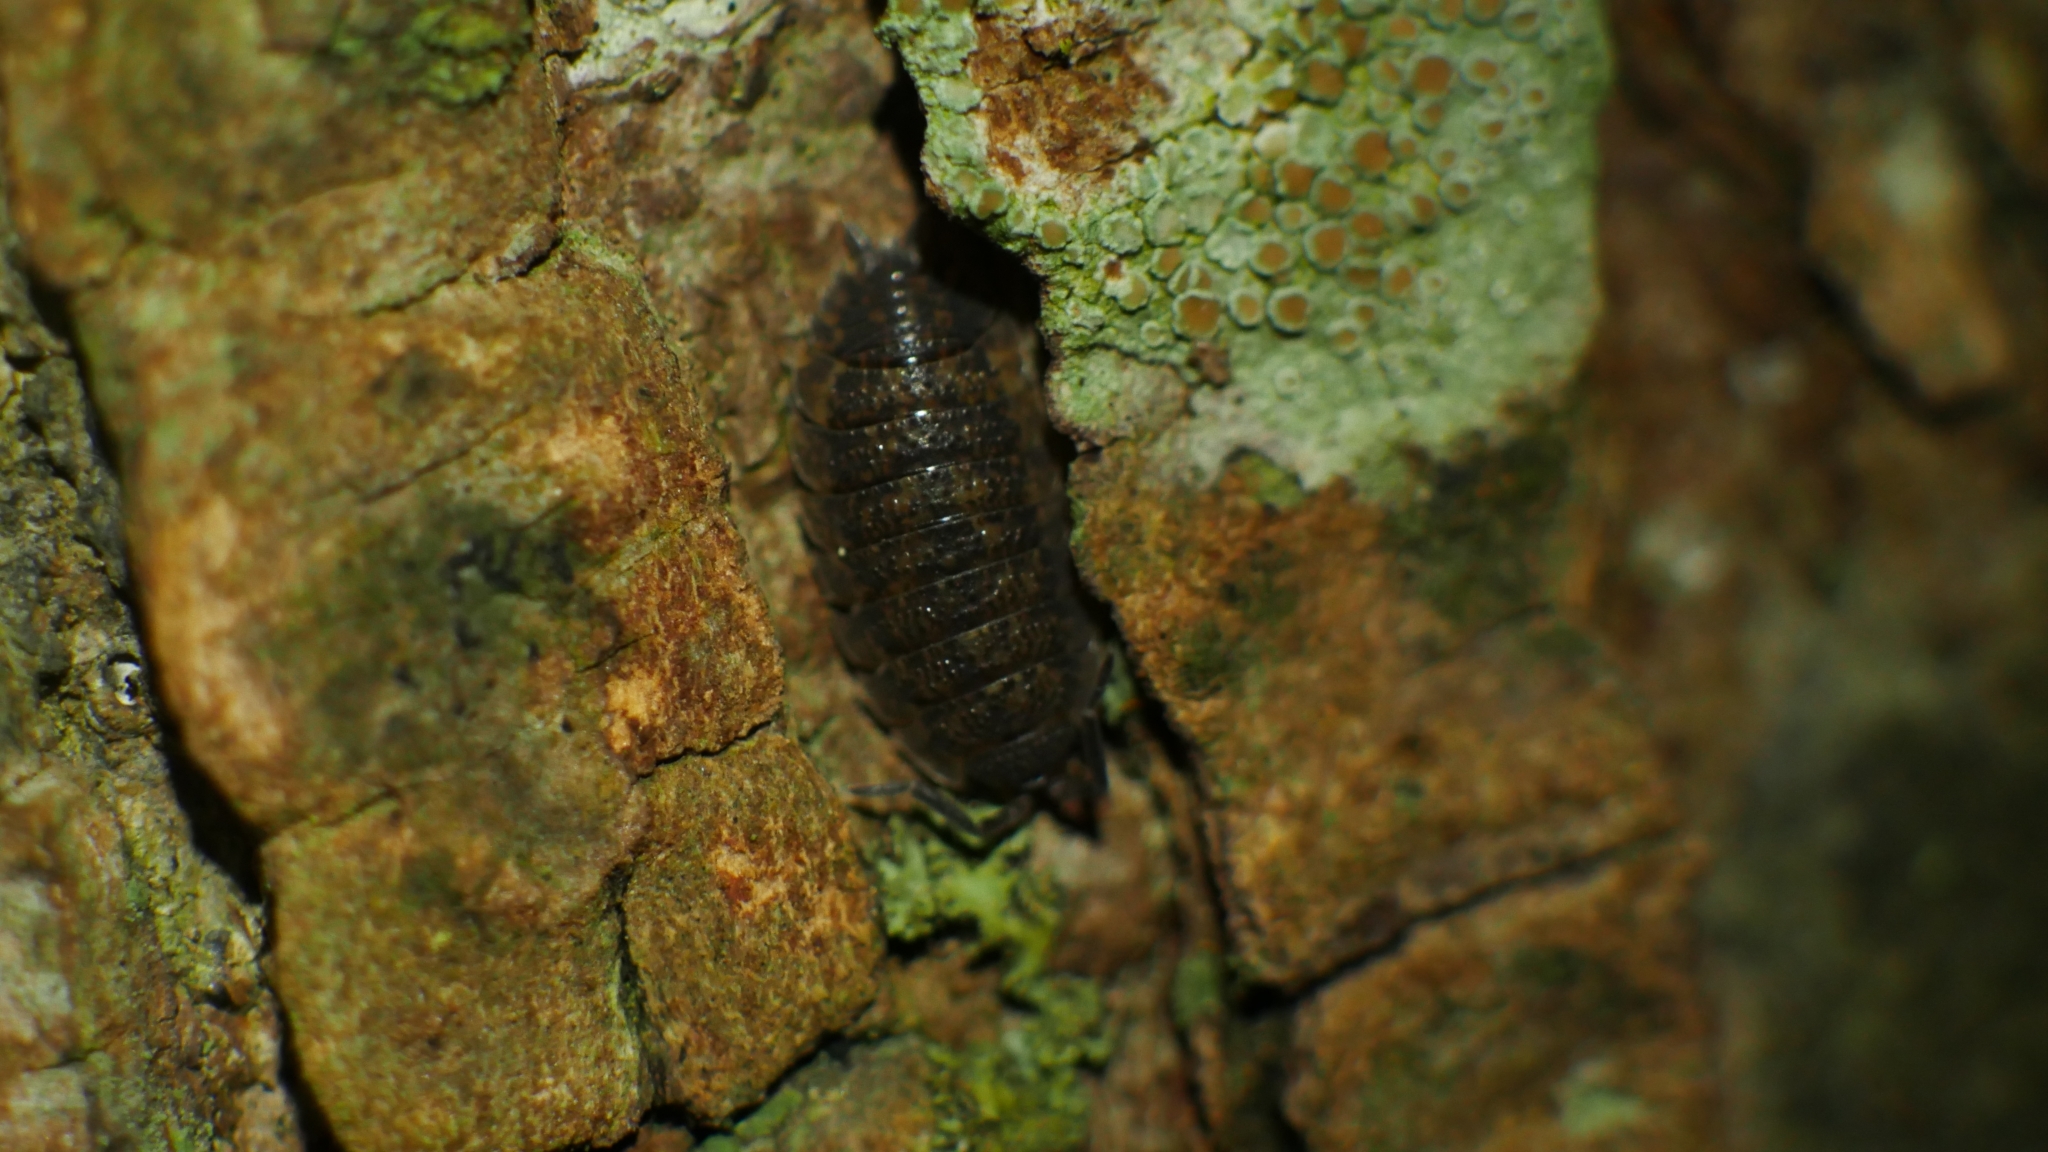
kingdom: Animalia
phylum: Arthropoda
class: Malacostraca
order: Isopoda
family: Porcellionidae
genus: Porcellio
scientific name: Porcellio scaber
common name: Common rough woodlouse
